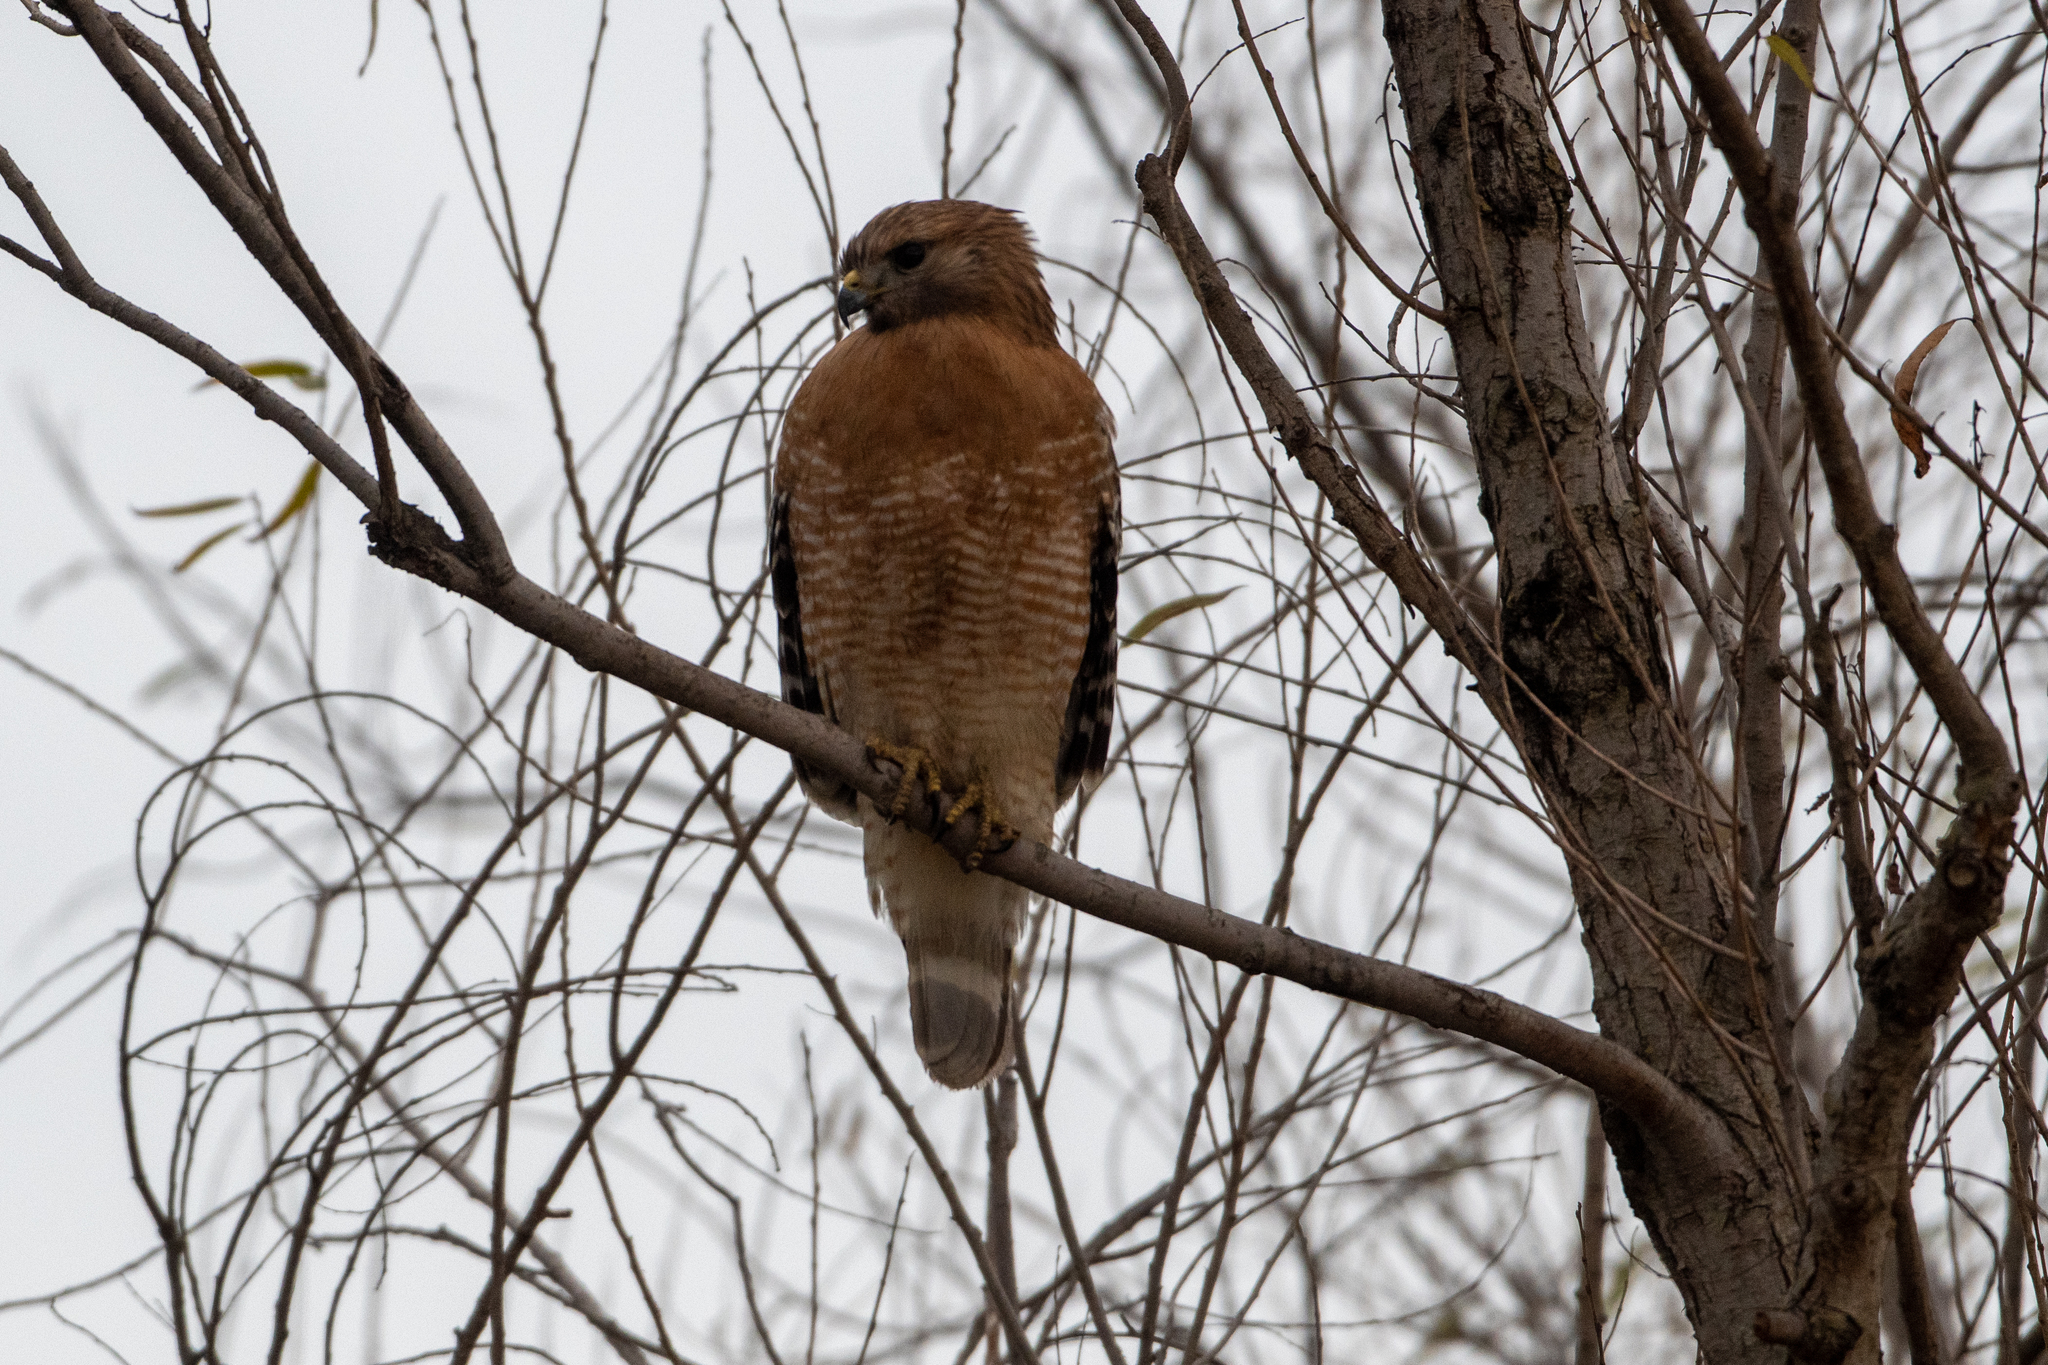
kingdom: Animalia
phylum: Chordata
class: Aves
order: Accipitriformes
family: Accipitridae
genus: Buteo
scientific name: Buteo lineatus
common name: Red-shouldered hawk
